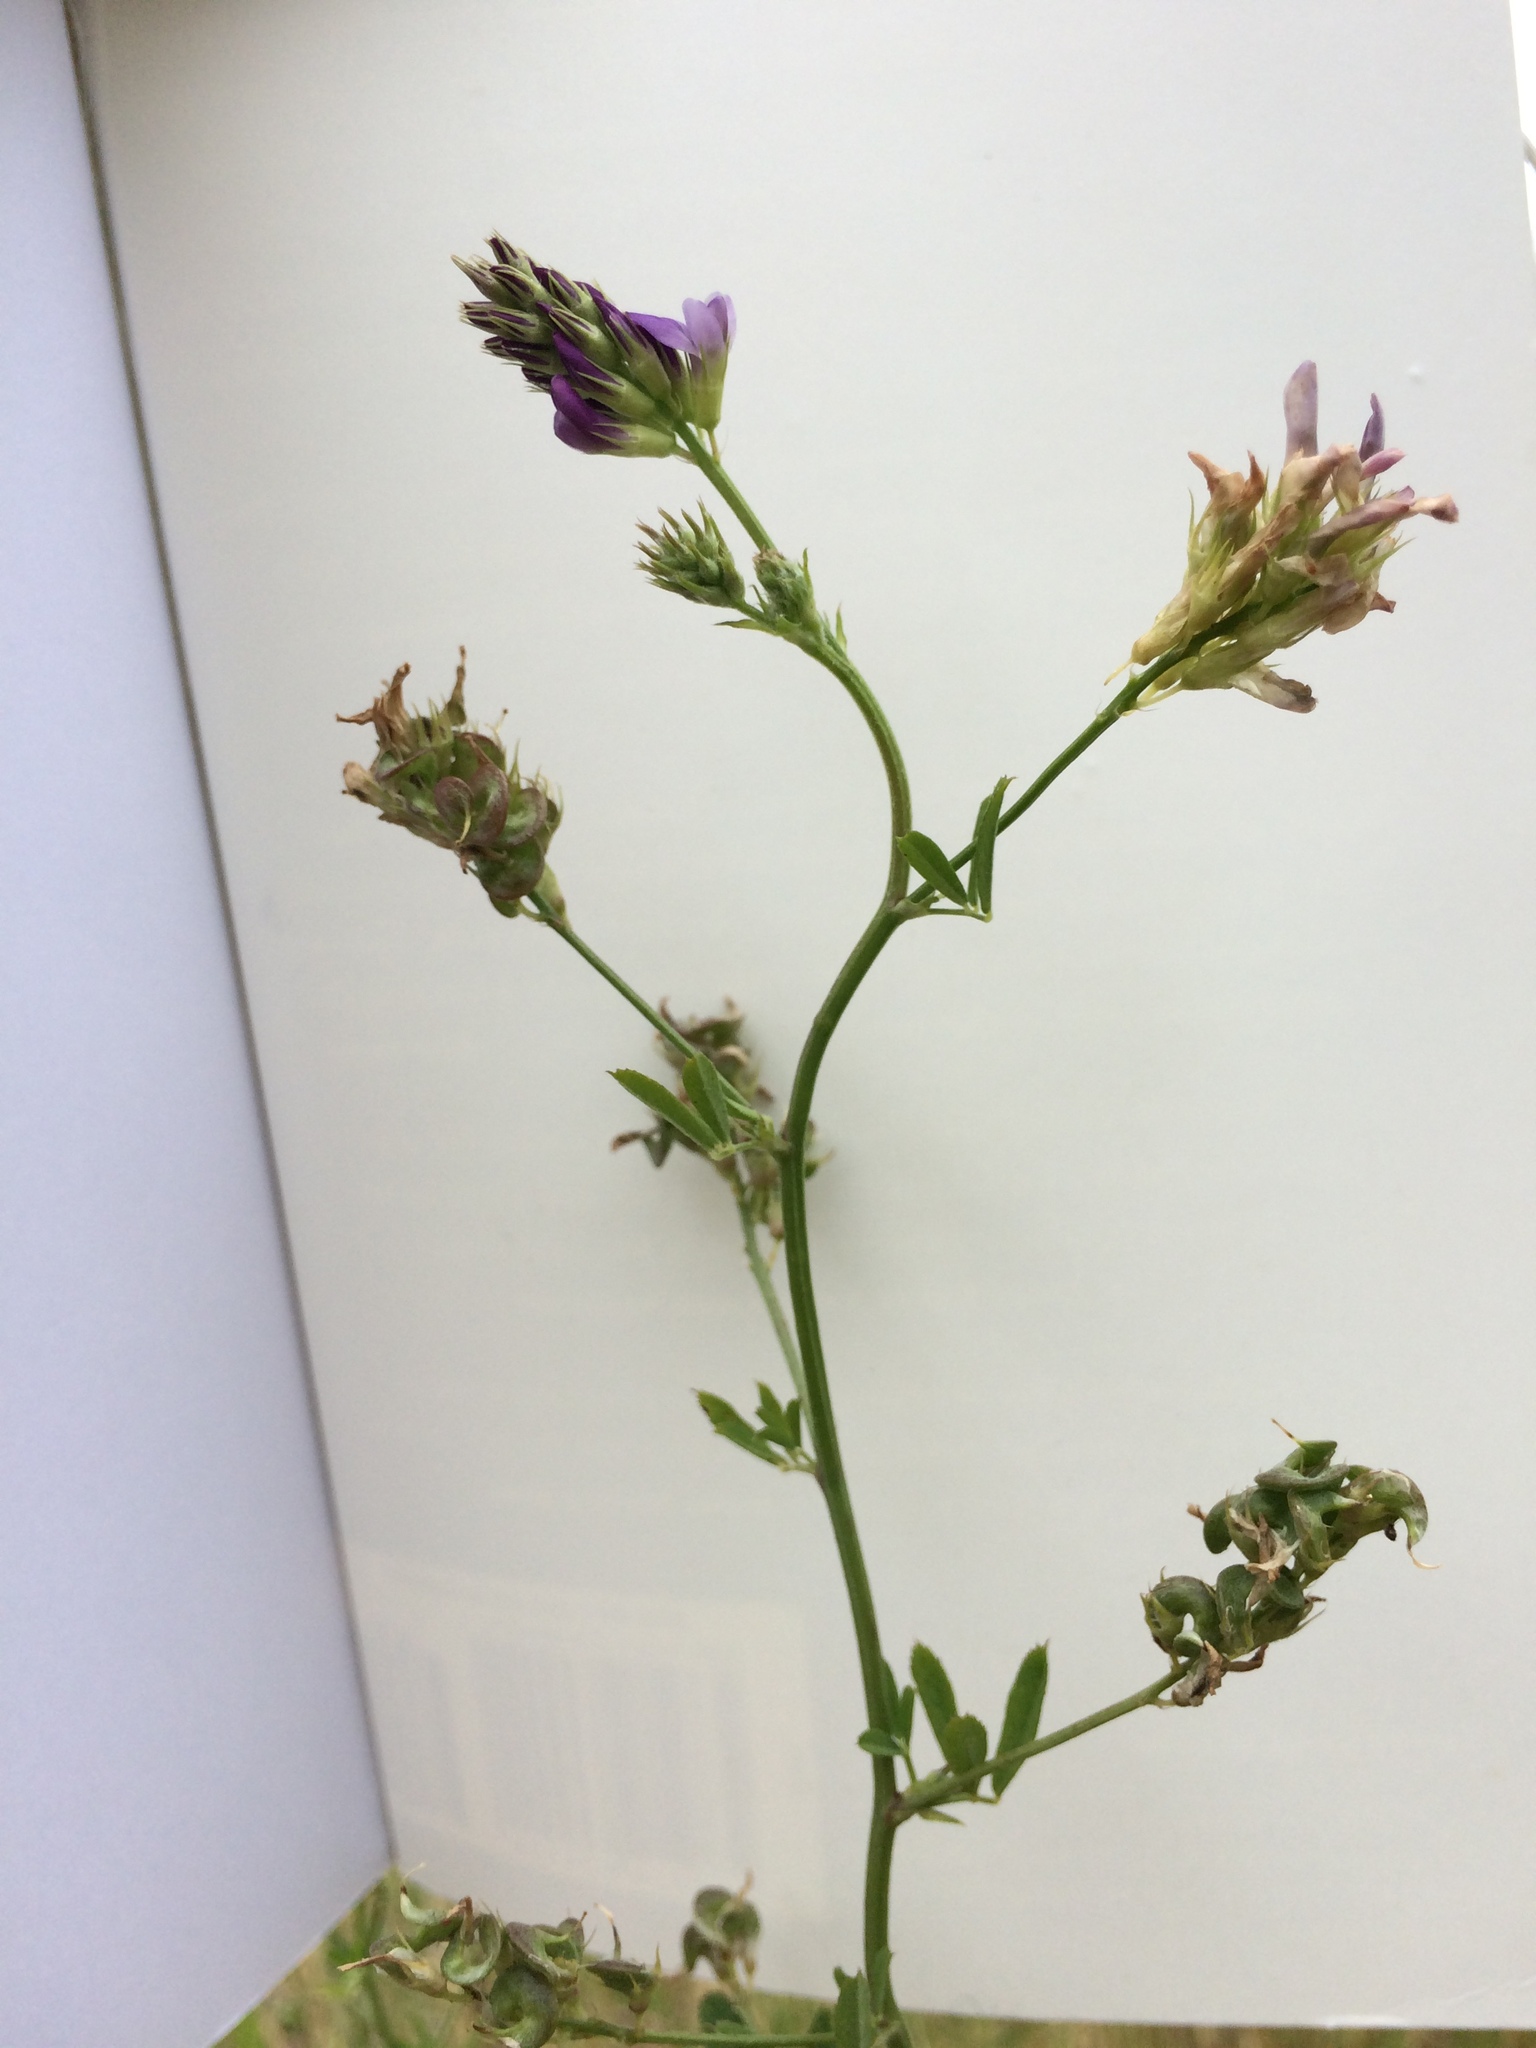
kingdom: Plantae
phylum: Tracheophyta
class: Magnoliopsida
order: Fabales
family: Fabaceae
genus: Medicago
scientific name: Medicago sativa
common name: Alfalfa
